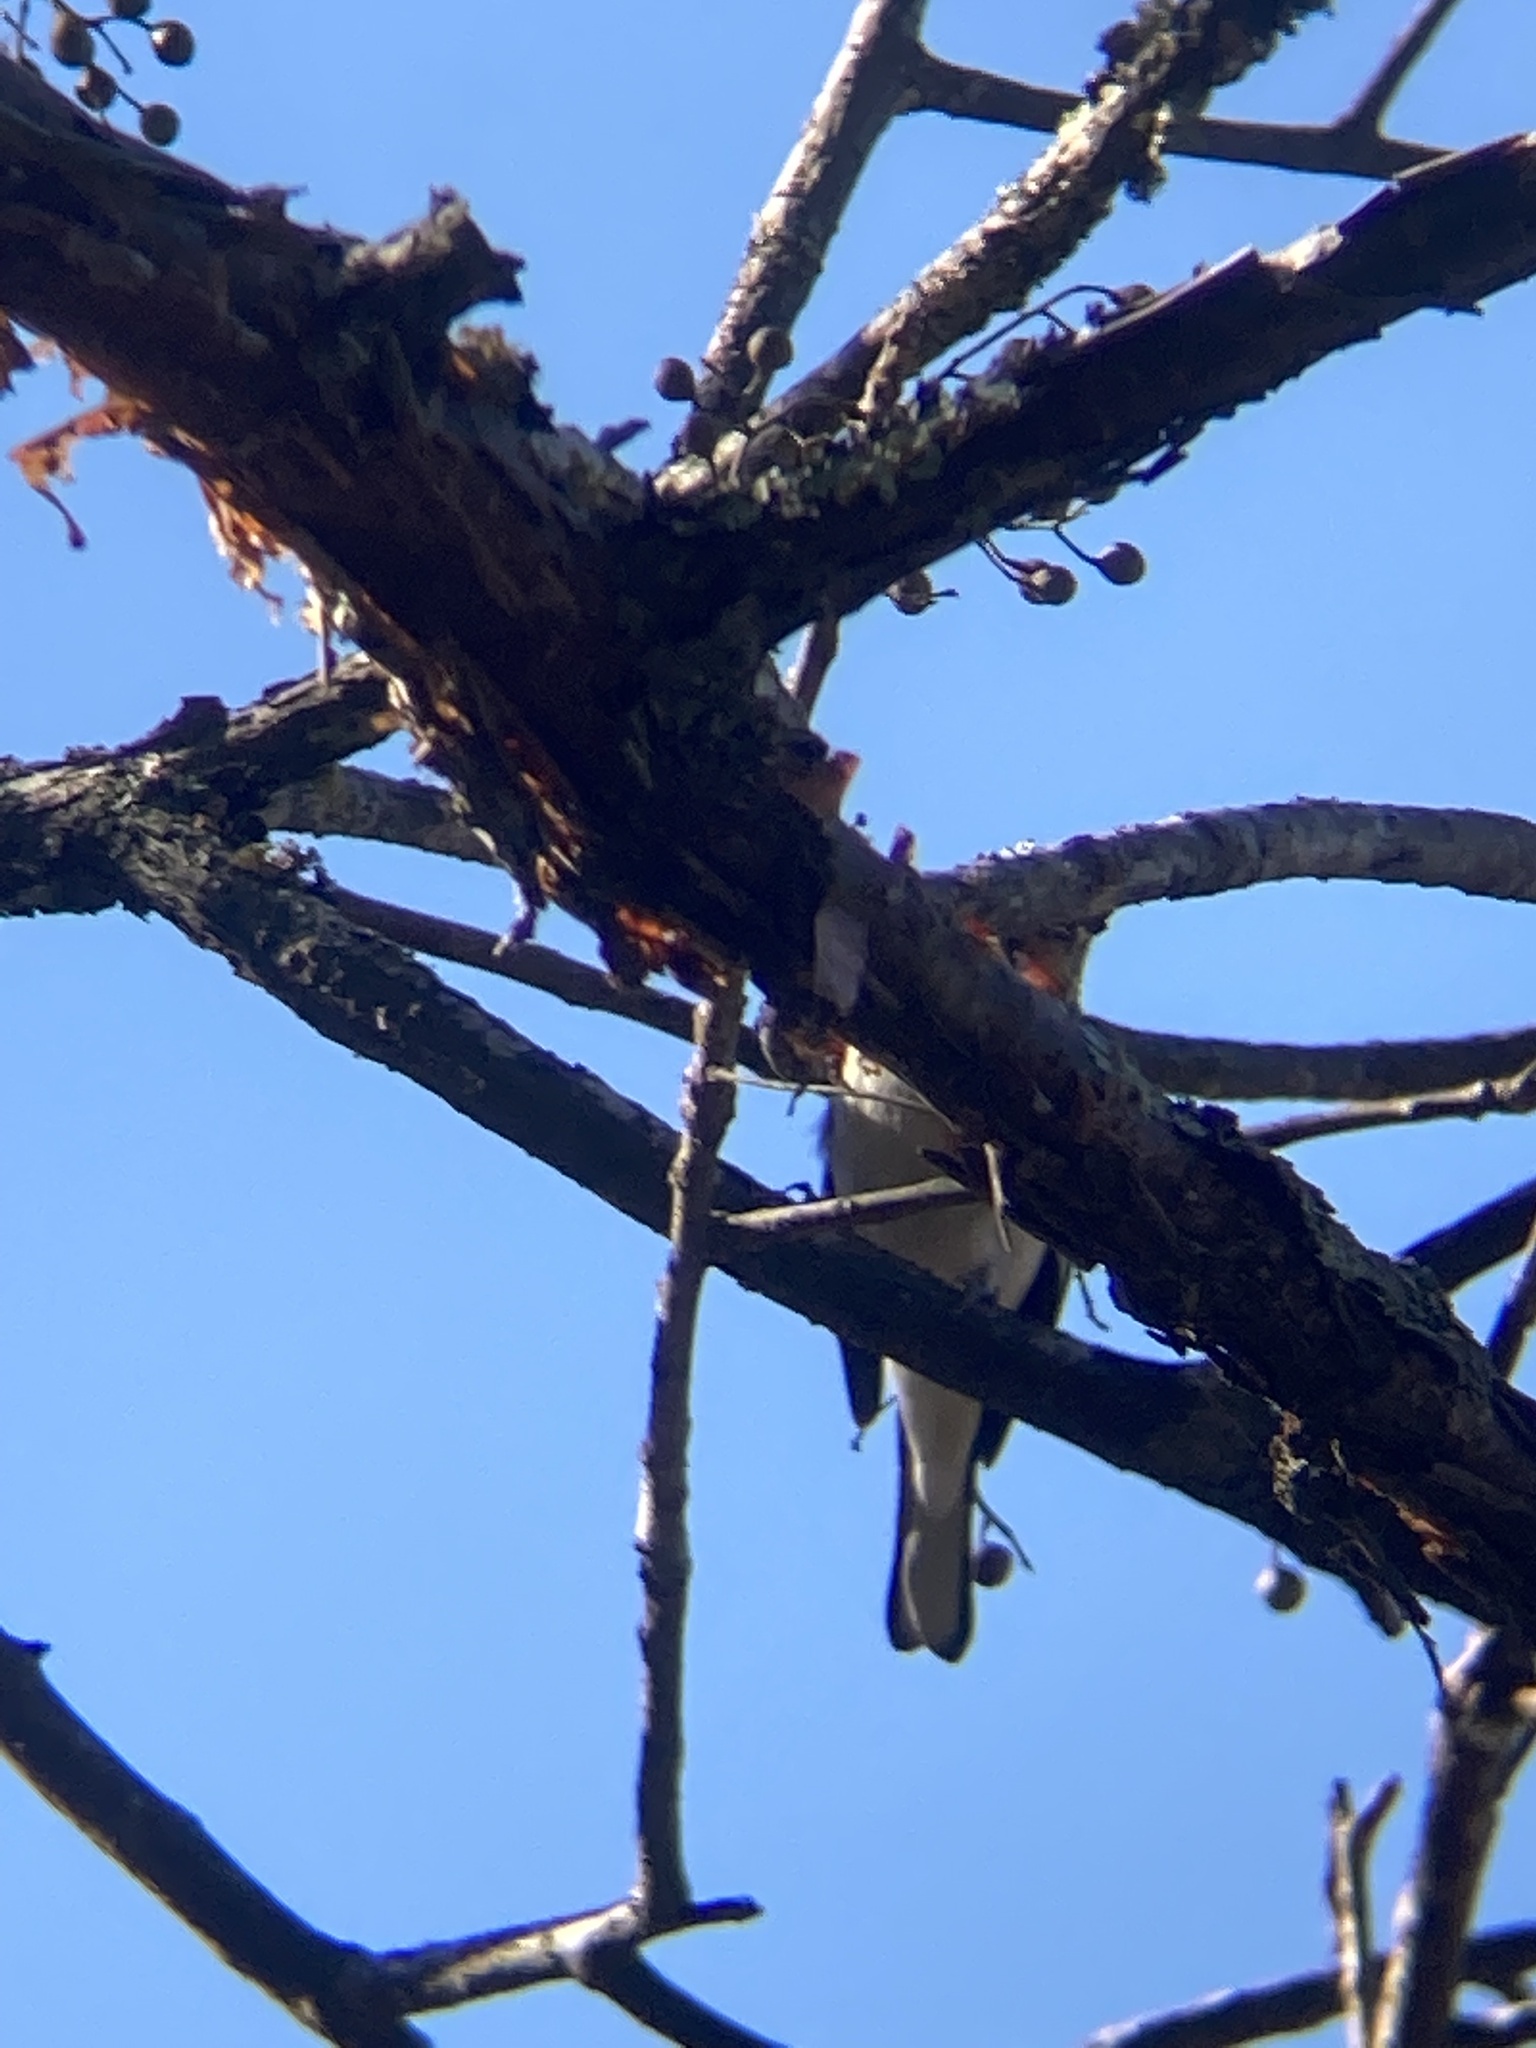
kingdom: Animalia
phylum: Chordata
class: Aves
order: Passeriformes
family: Cardinalidae
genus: Pheucticus
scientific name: Pheucticus ludovicianus
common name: Rose-breasted grosbeak
